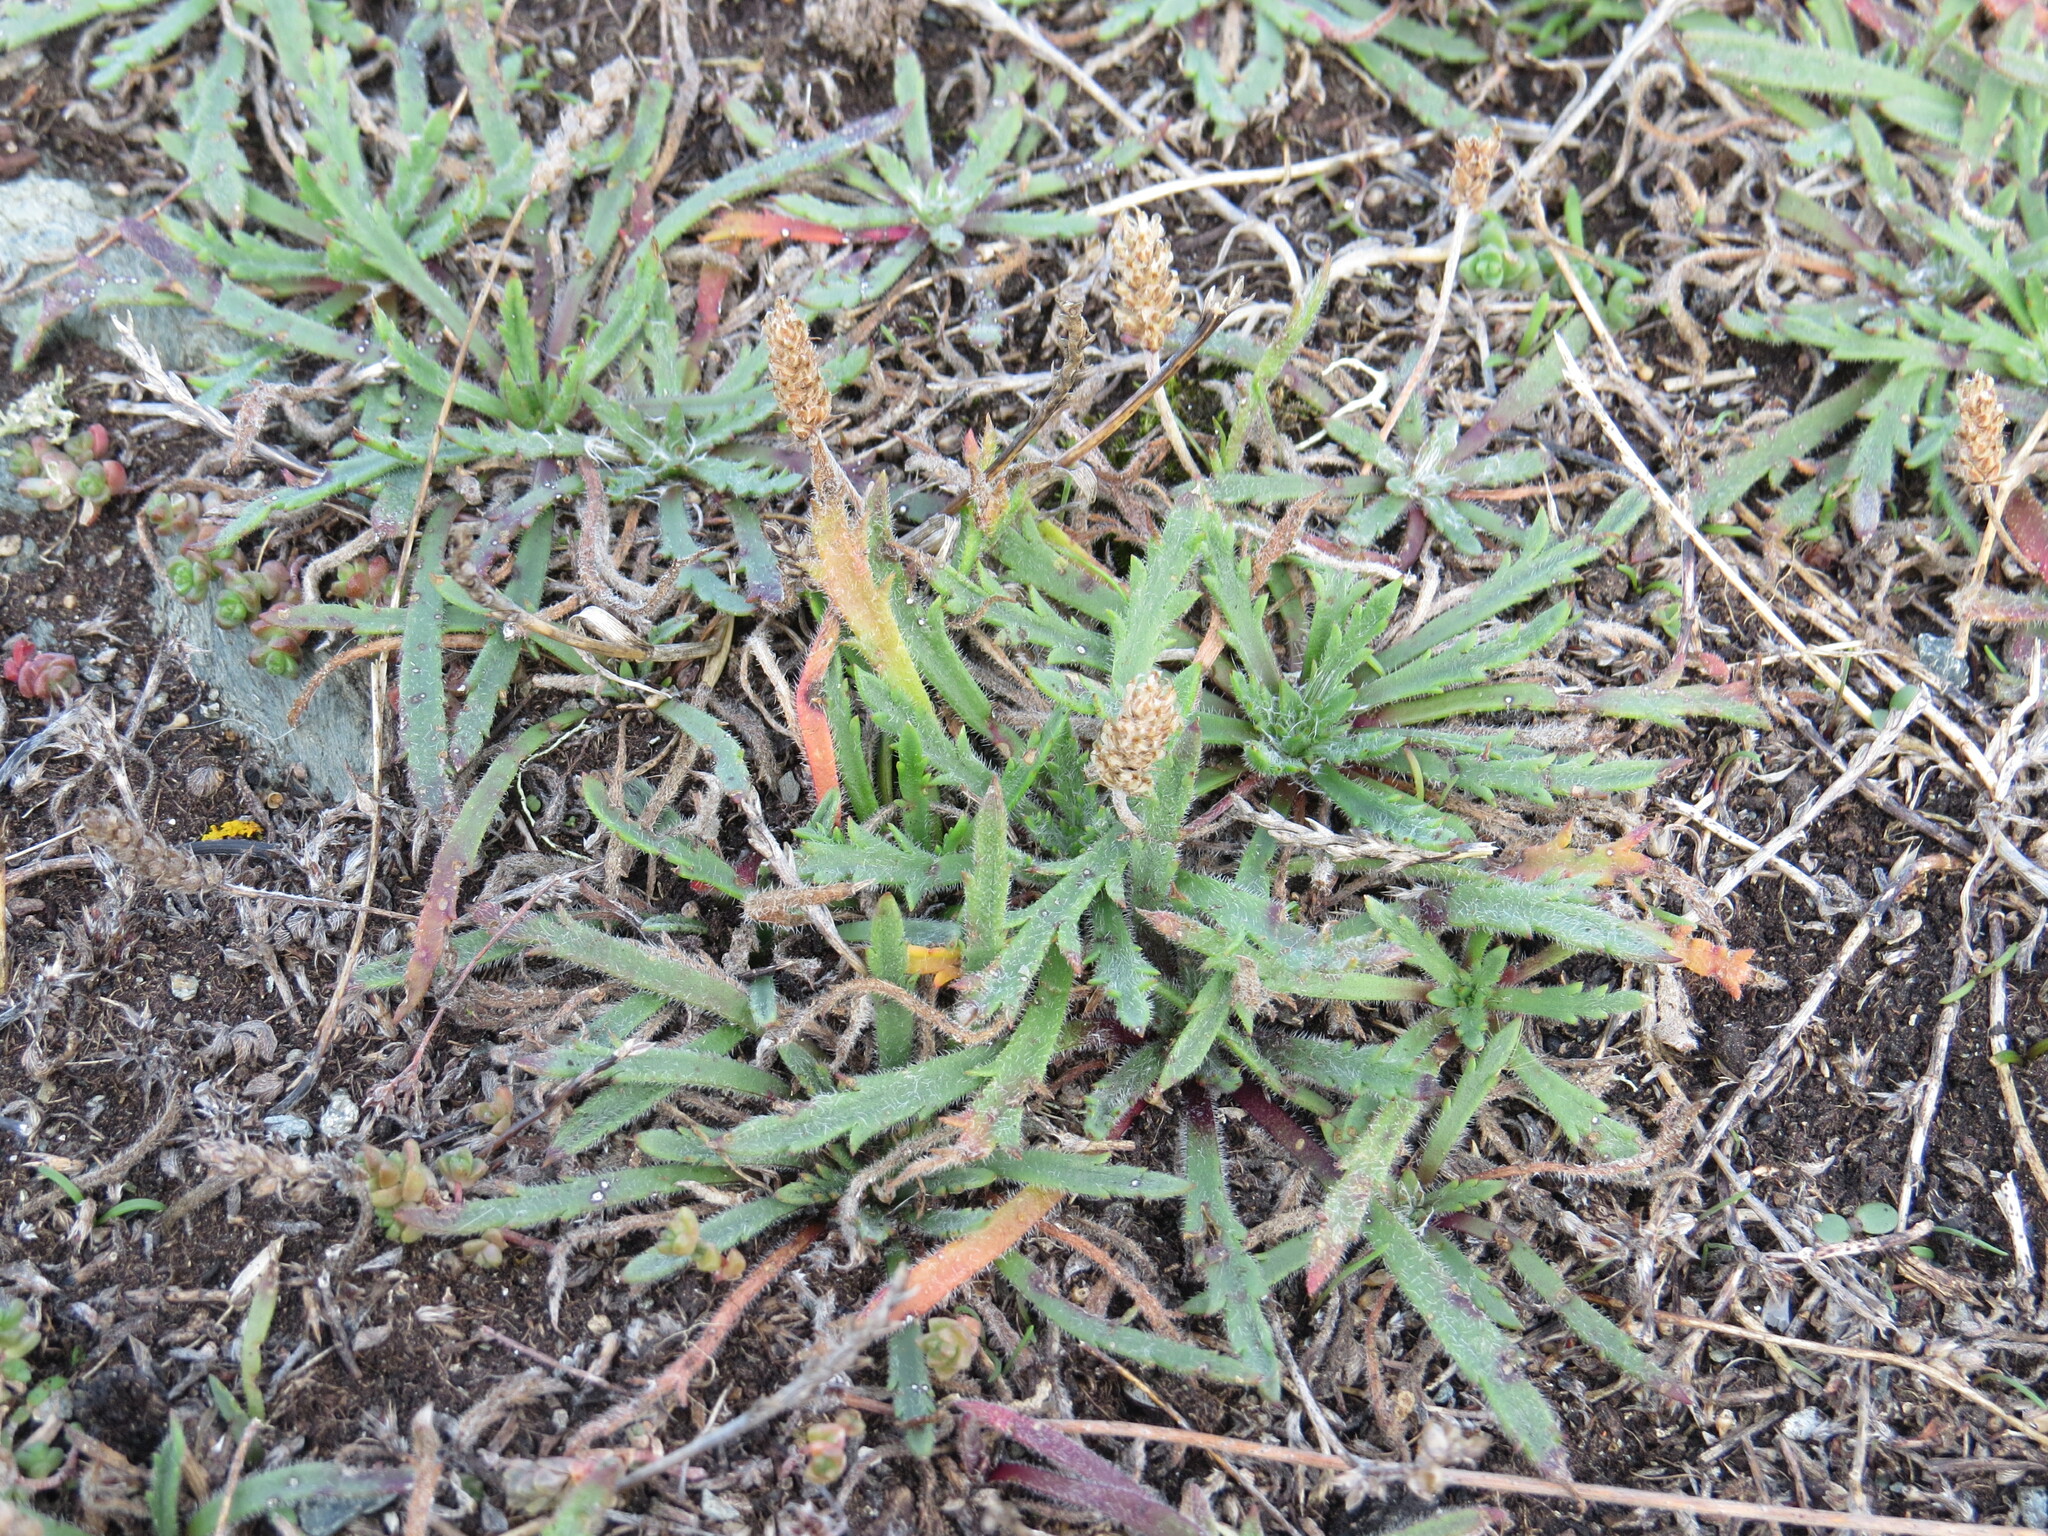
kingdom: Plantae
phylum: Tracheophyta
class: Magnoliopsida
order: Lamiales
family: Plantaginaceae
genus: Plantago
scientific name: Plantago coronopus
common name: Buck's-horn plantain
